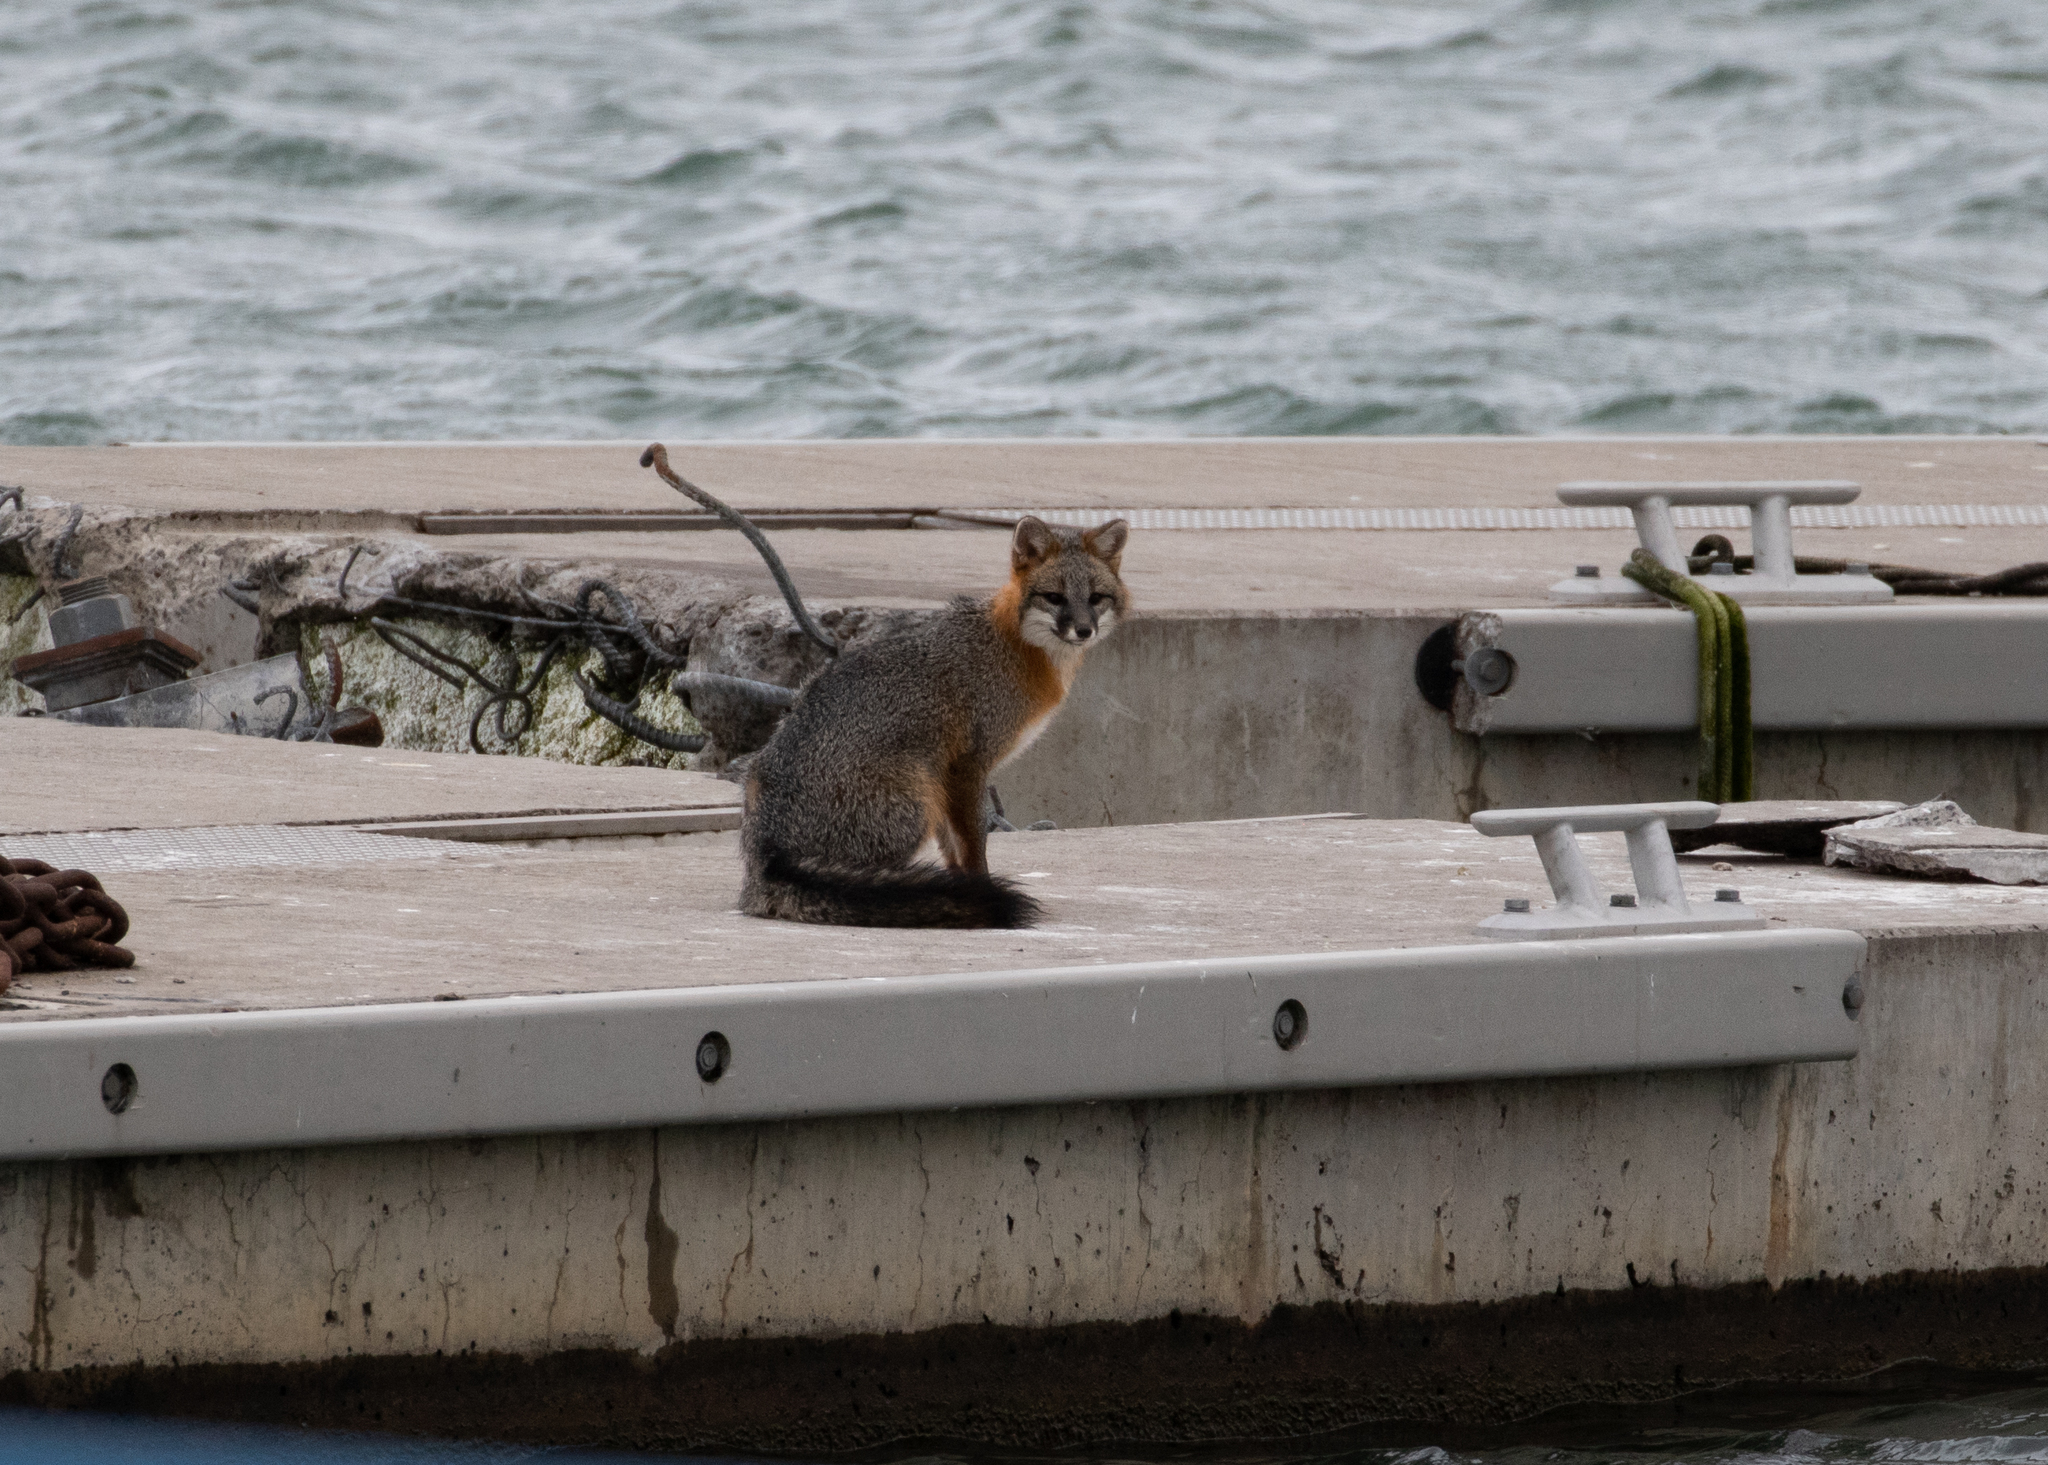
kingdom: Animalia
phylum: Chordata
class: Mammalia
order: Carnivora
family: Canidae
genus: Urocyon
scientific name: Urocyon cinereoargenteus
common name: Gray fox
